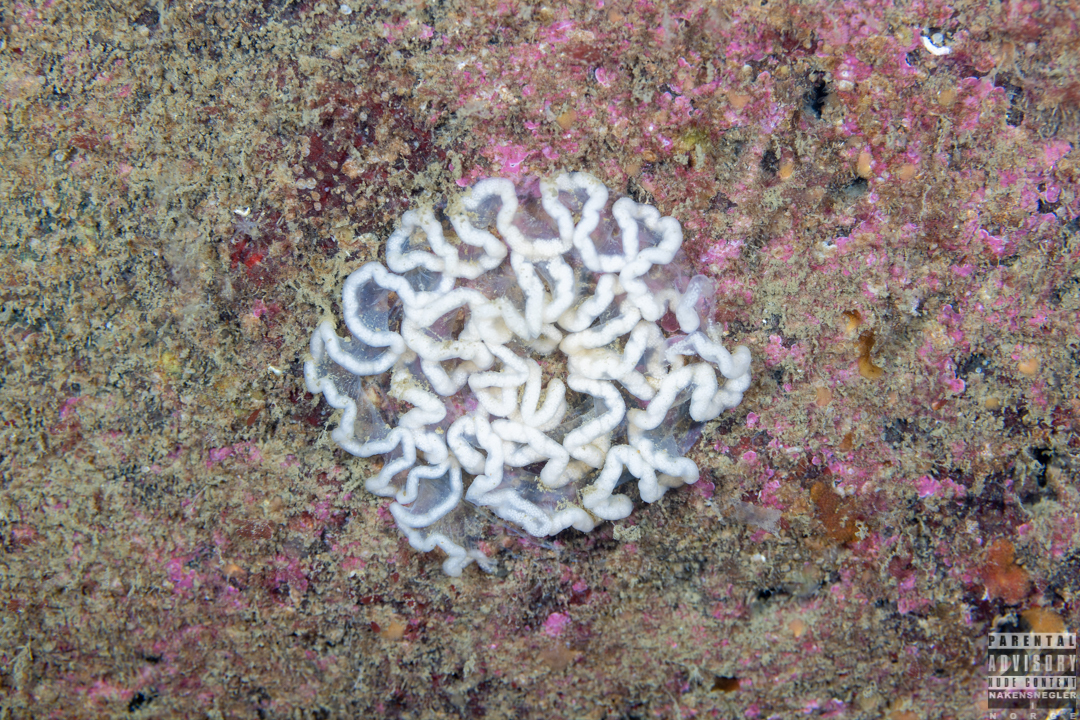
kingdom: Animalia
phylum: Mollusca
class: Gastropoda
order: Nudibranchia
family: Tritoniidae
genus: Tritonia
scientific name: Tritonia hombergii
